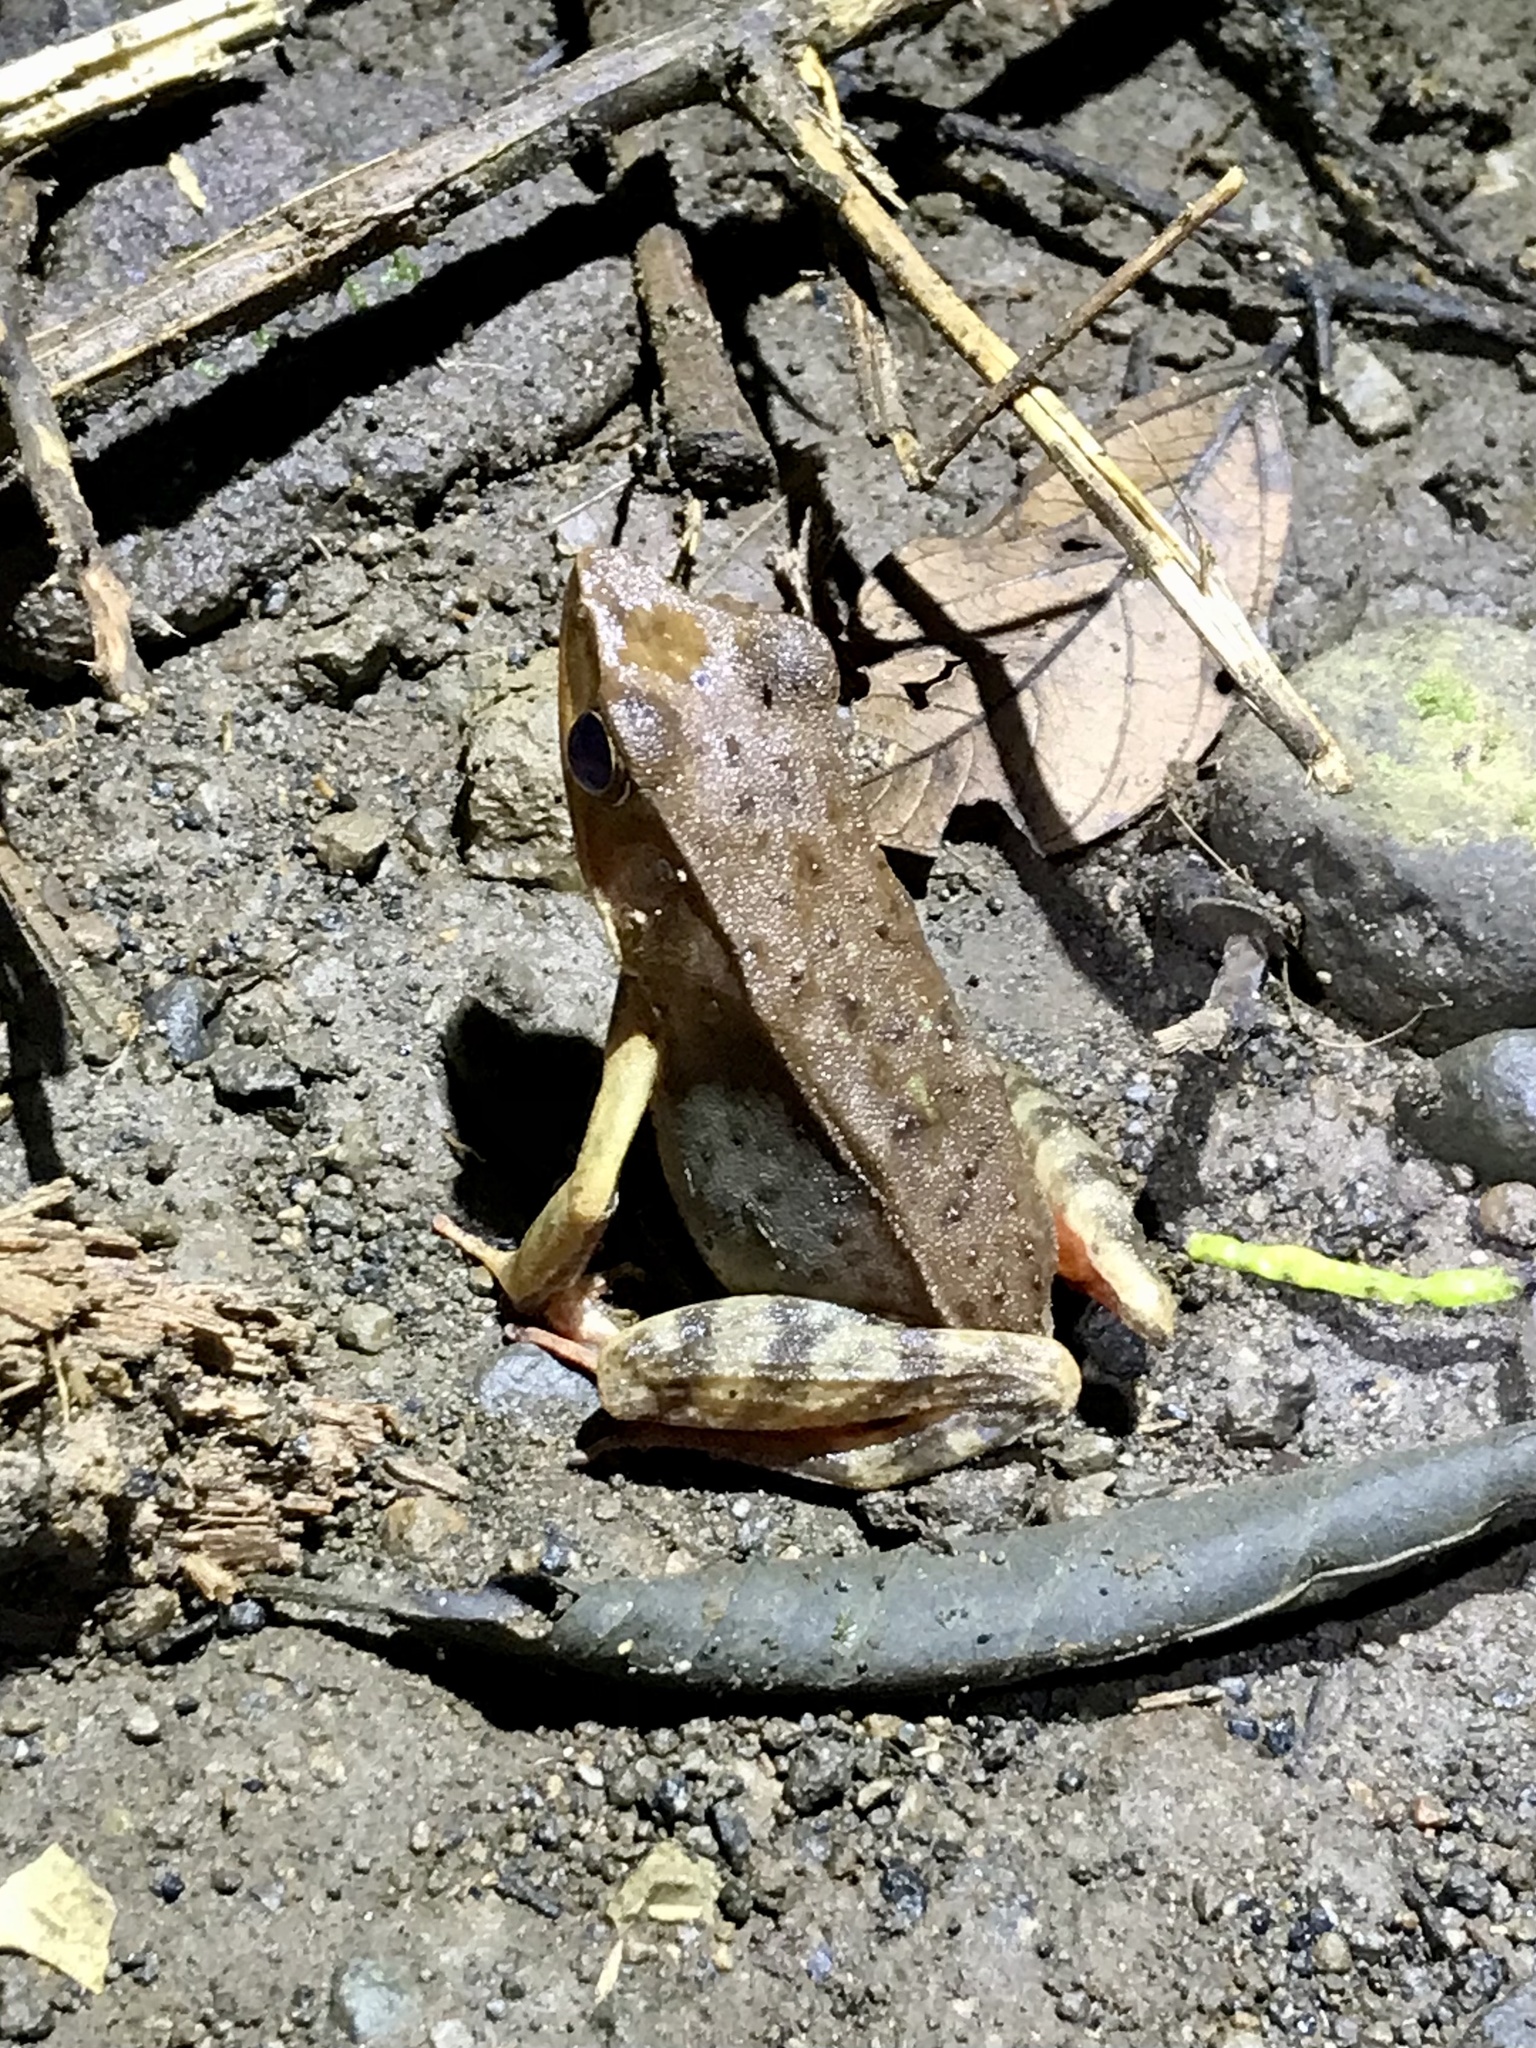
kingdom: Animalia
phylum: Chordata
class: Amphibia
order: Anura
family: Ranidae
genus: Lithobates
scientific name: Lithobates warszewitschii
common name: Warszewitsch's frog
